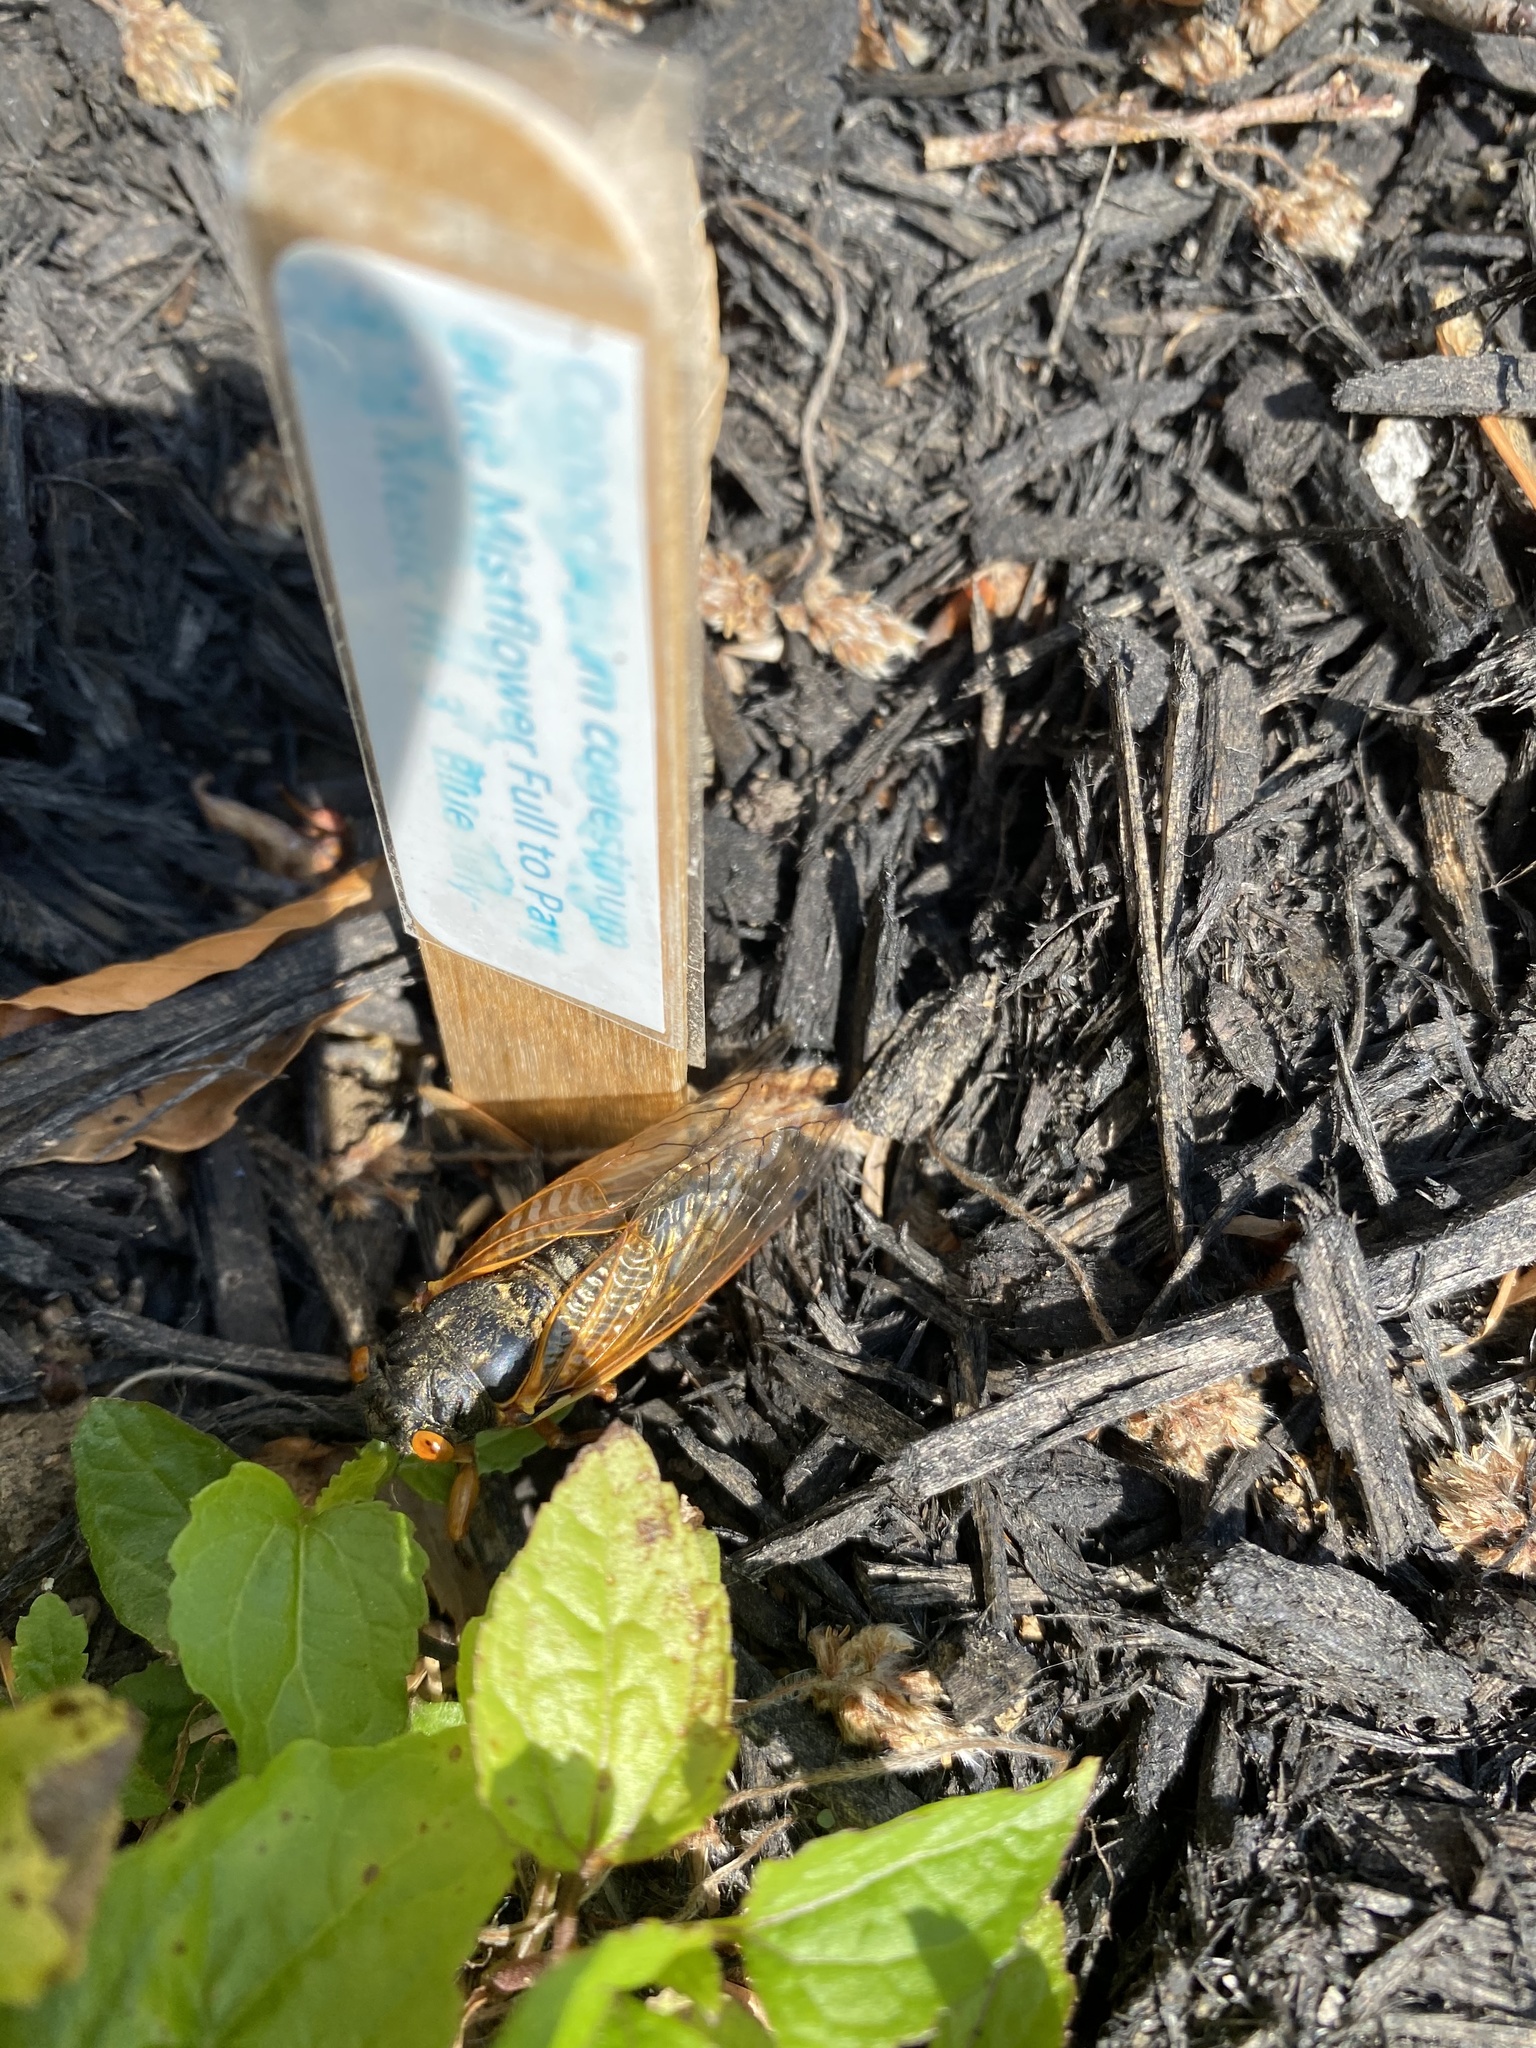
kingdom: Animalia
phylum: Arthropoda
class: Insecta
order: Hemiptera
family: Cicadidae
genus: Magicicada
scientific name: Magicicada
